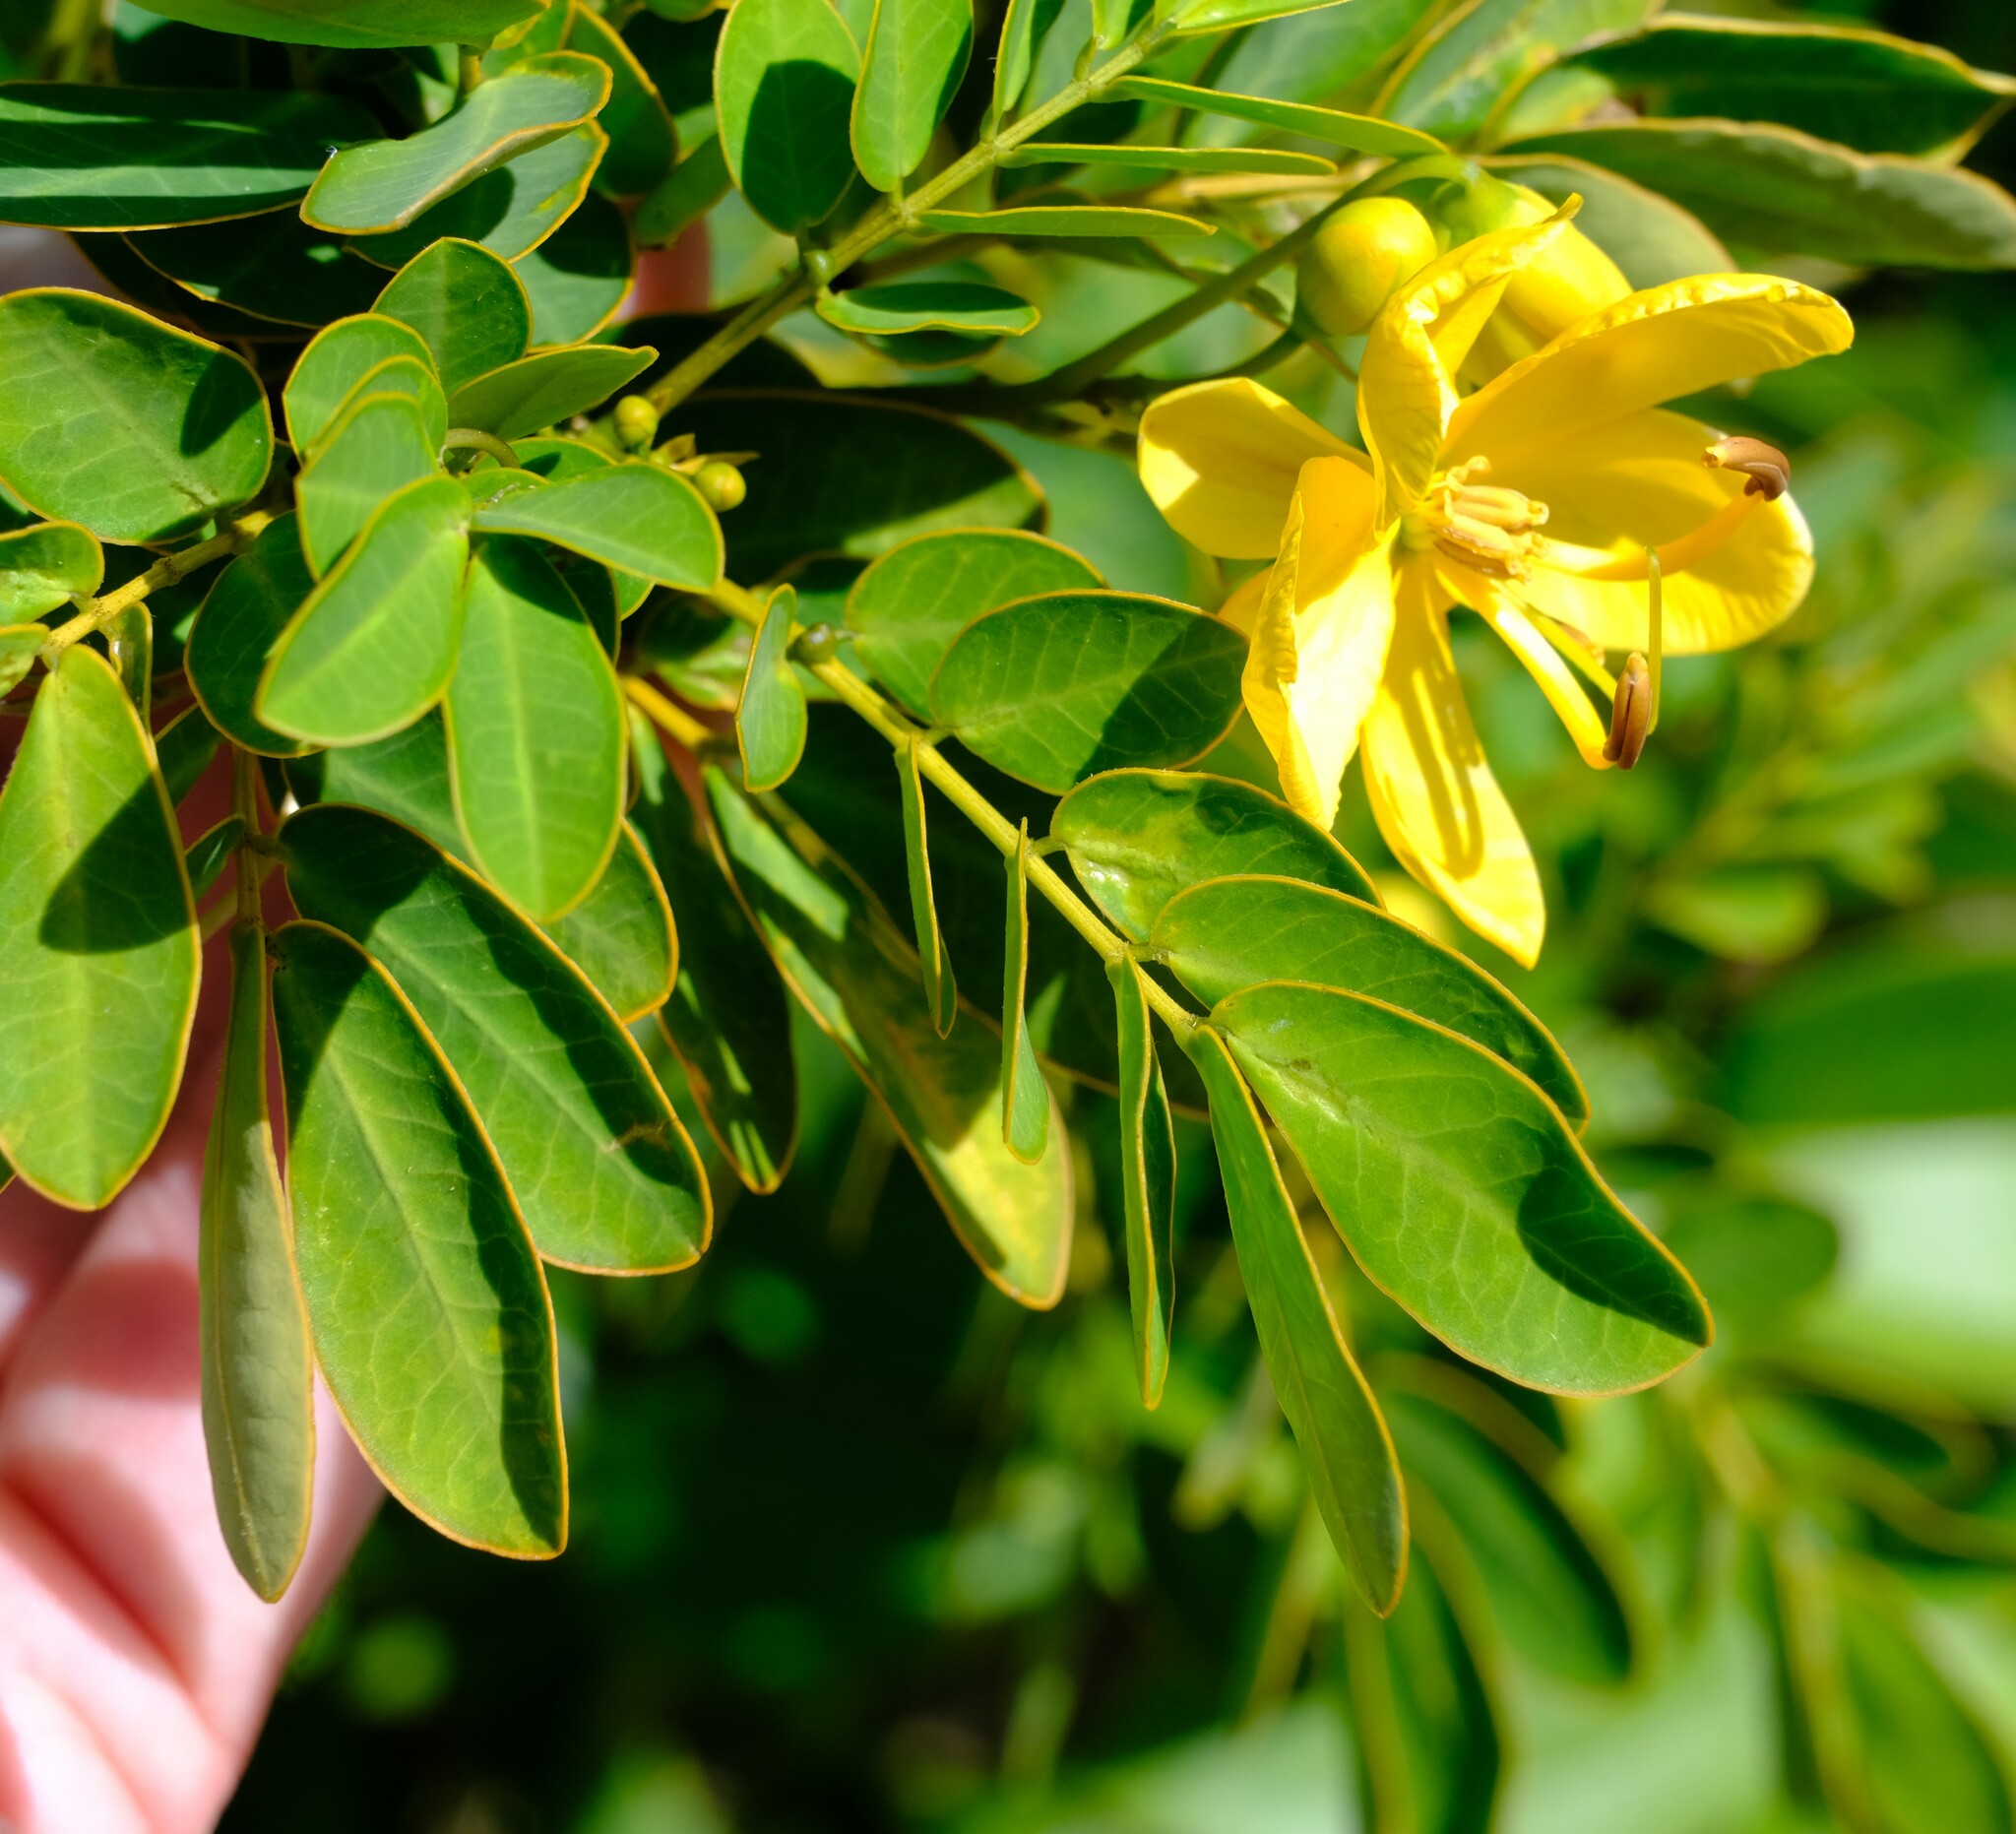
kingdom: Plantae
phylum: Tracheophyta
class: Magnoliopsida
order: Fabales
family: Fabaceae
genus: Senna
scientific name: Senna pendula
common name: Easter cassia
